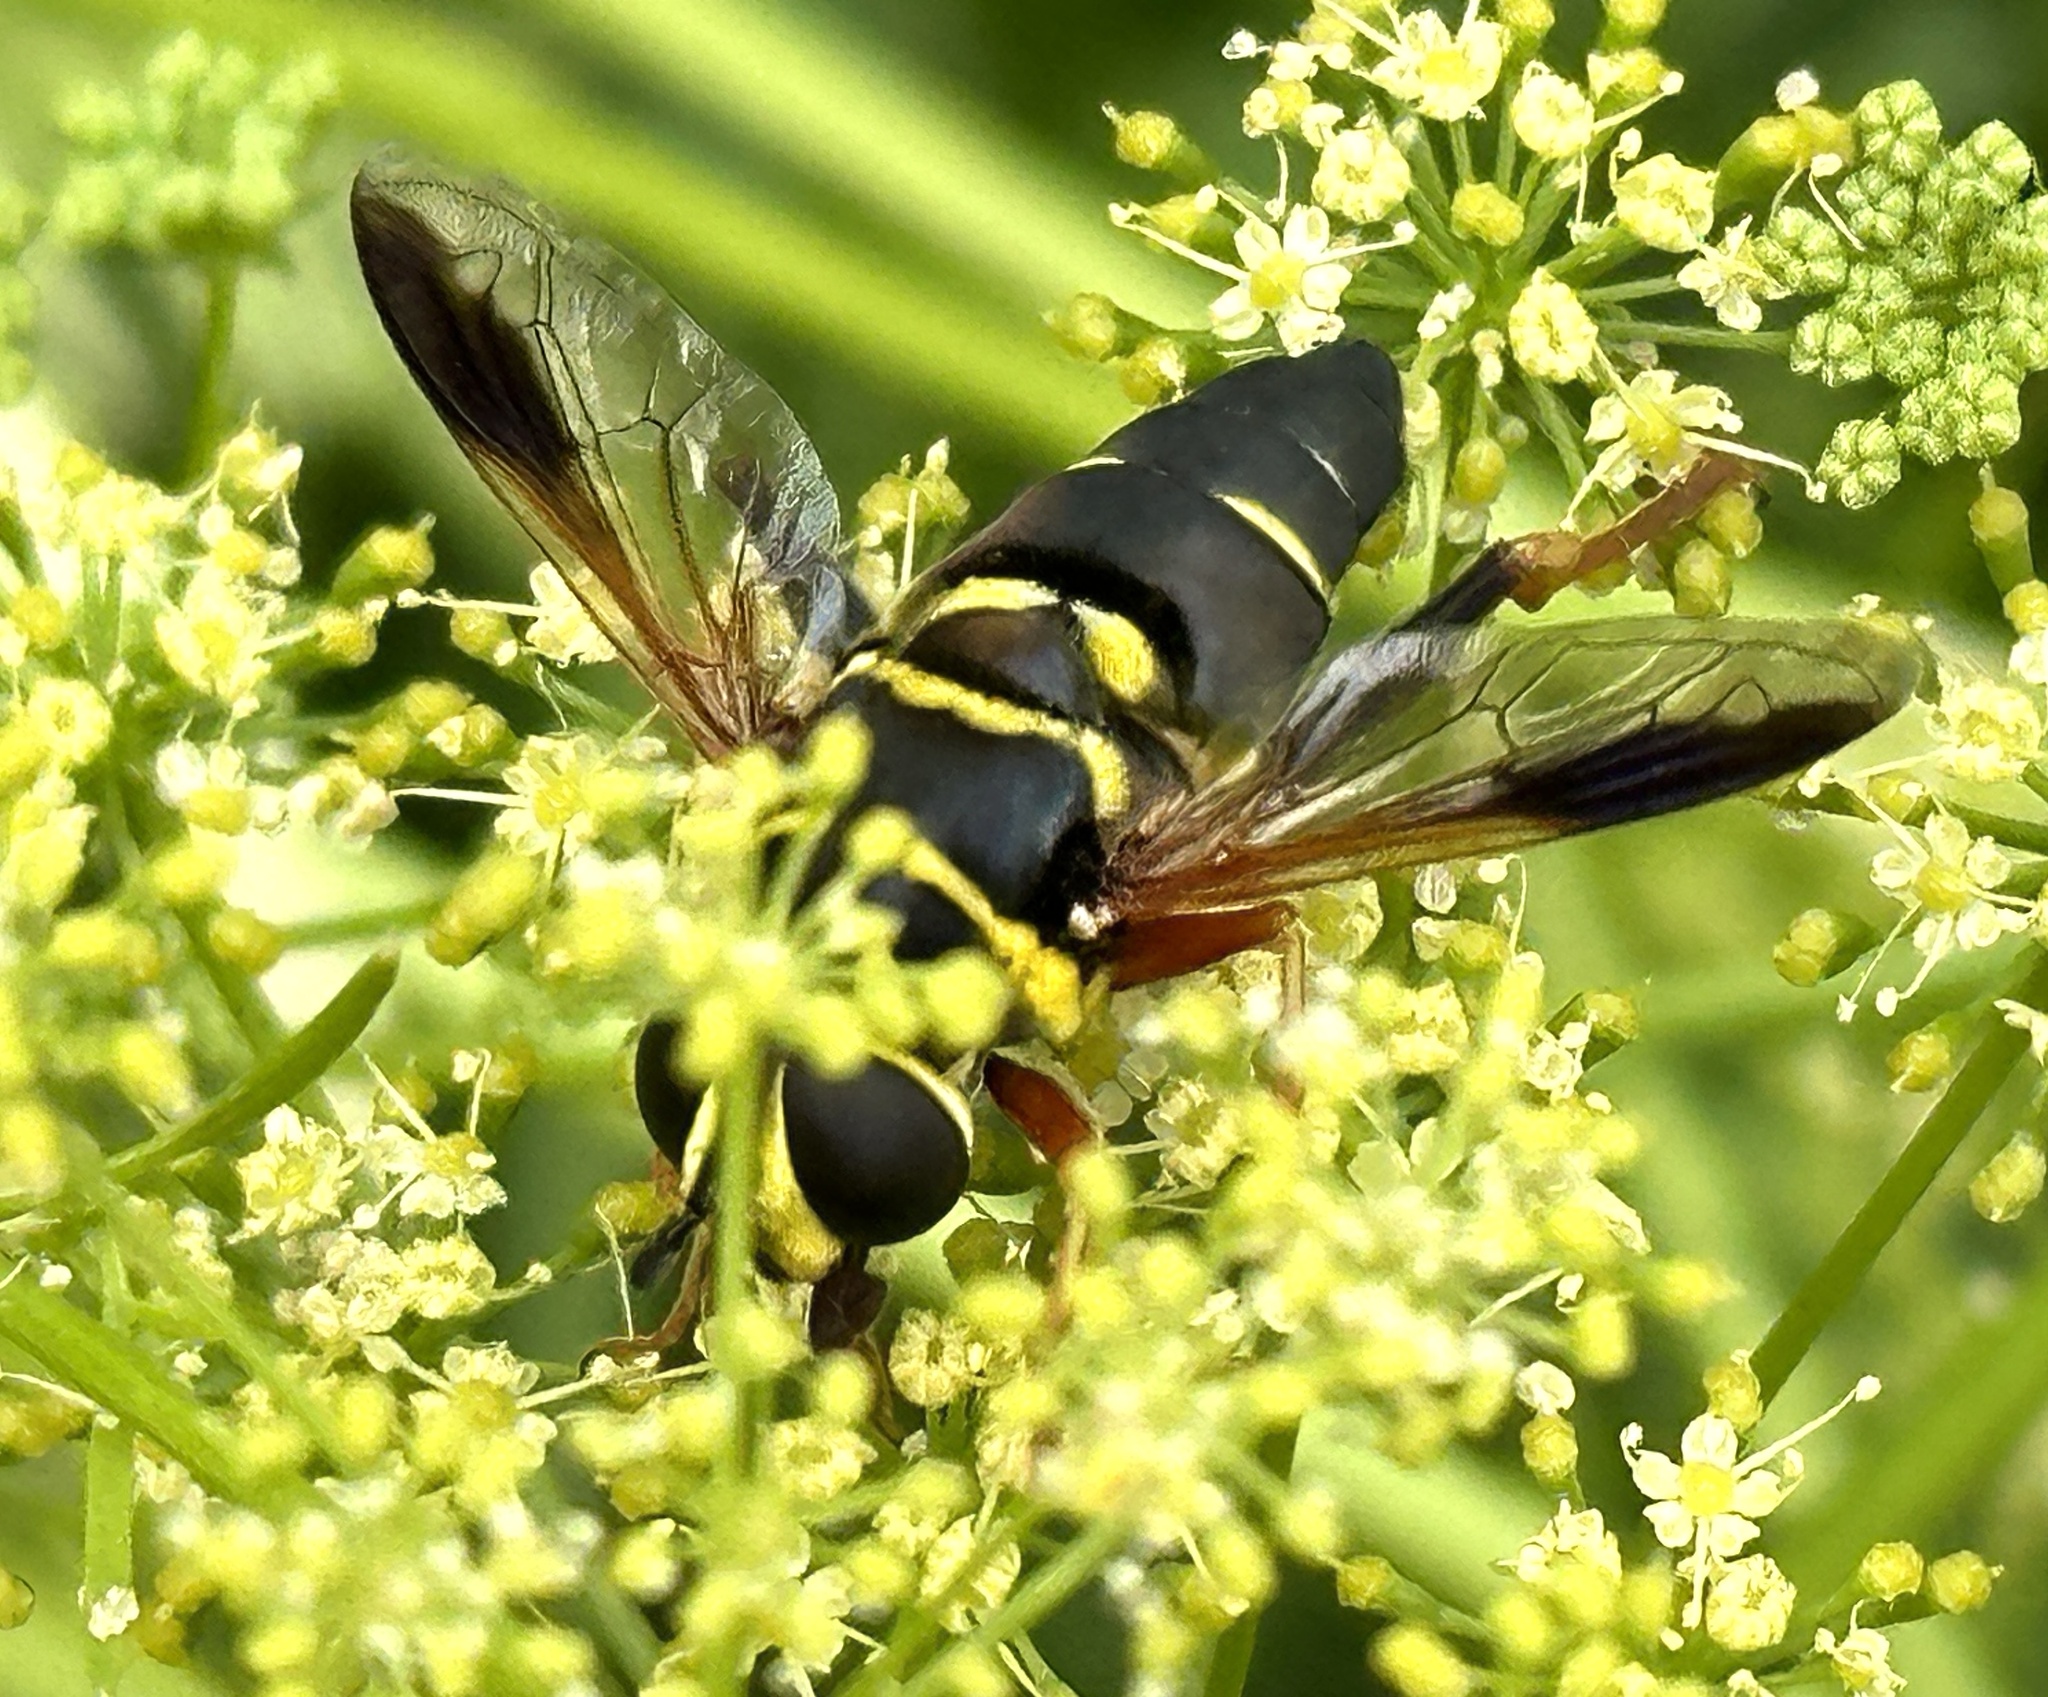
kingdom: Animalia
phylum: Arthropoda
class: Insecta
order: Diptera
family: Syrphidae
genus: Meromacrus
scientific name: Meromacrus acutus
